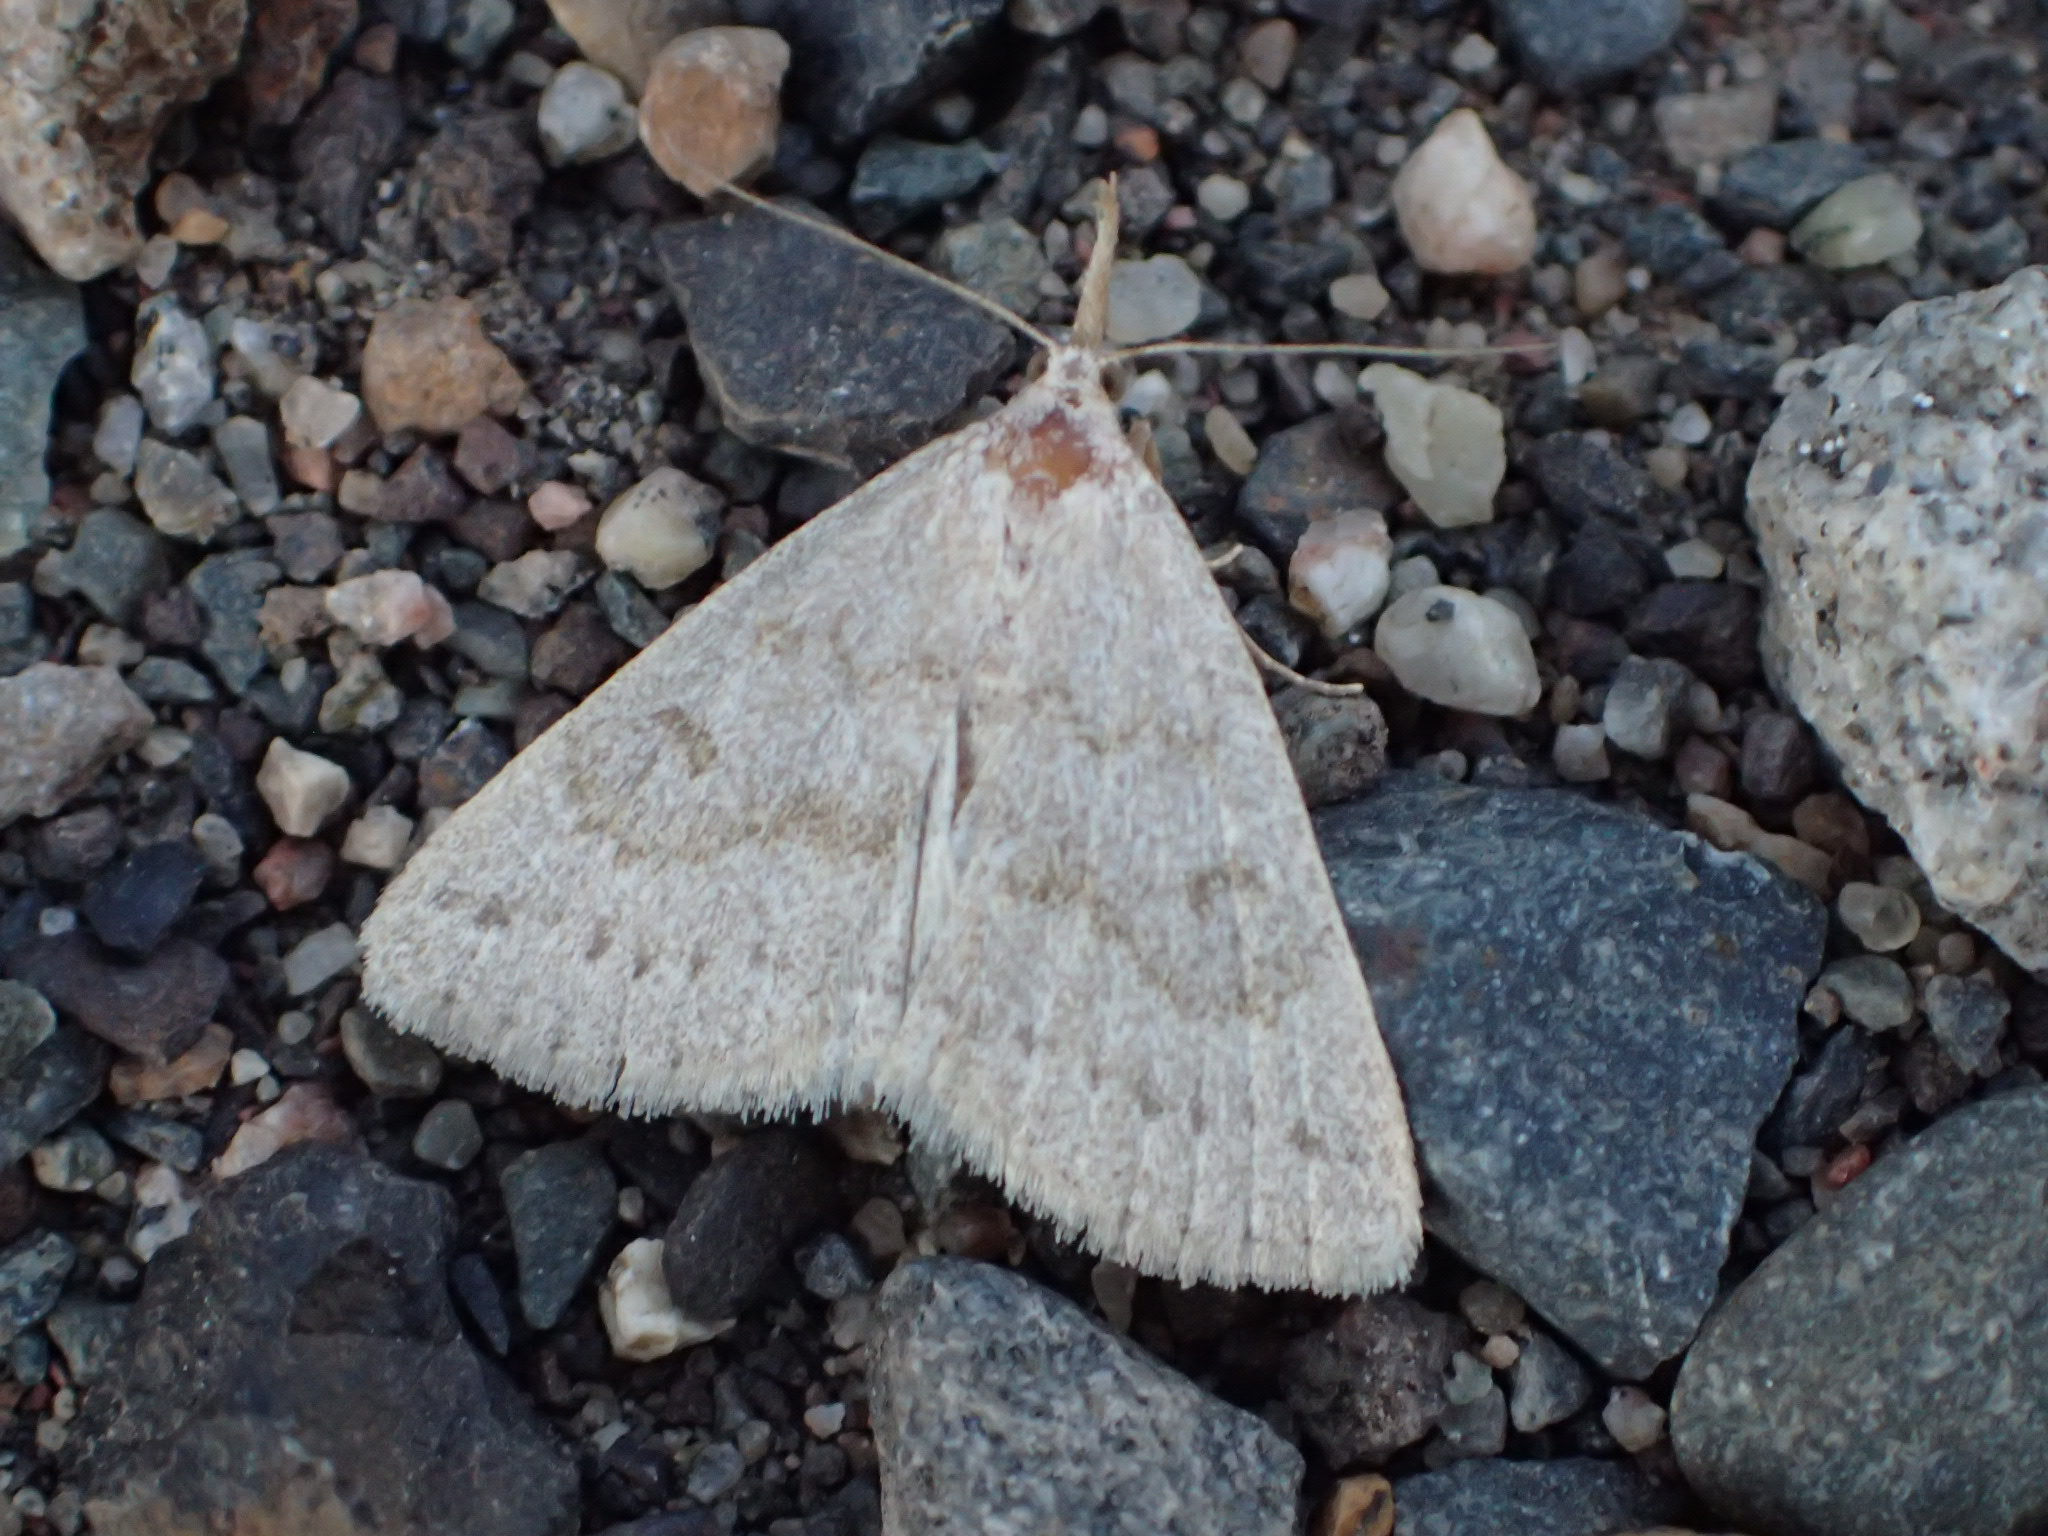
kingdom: Animalia
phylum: Arthropoda
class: Insecta
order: Lepidoptera
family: Erebidae
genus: Macrochilo
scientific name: Macrochilo morbidalis
